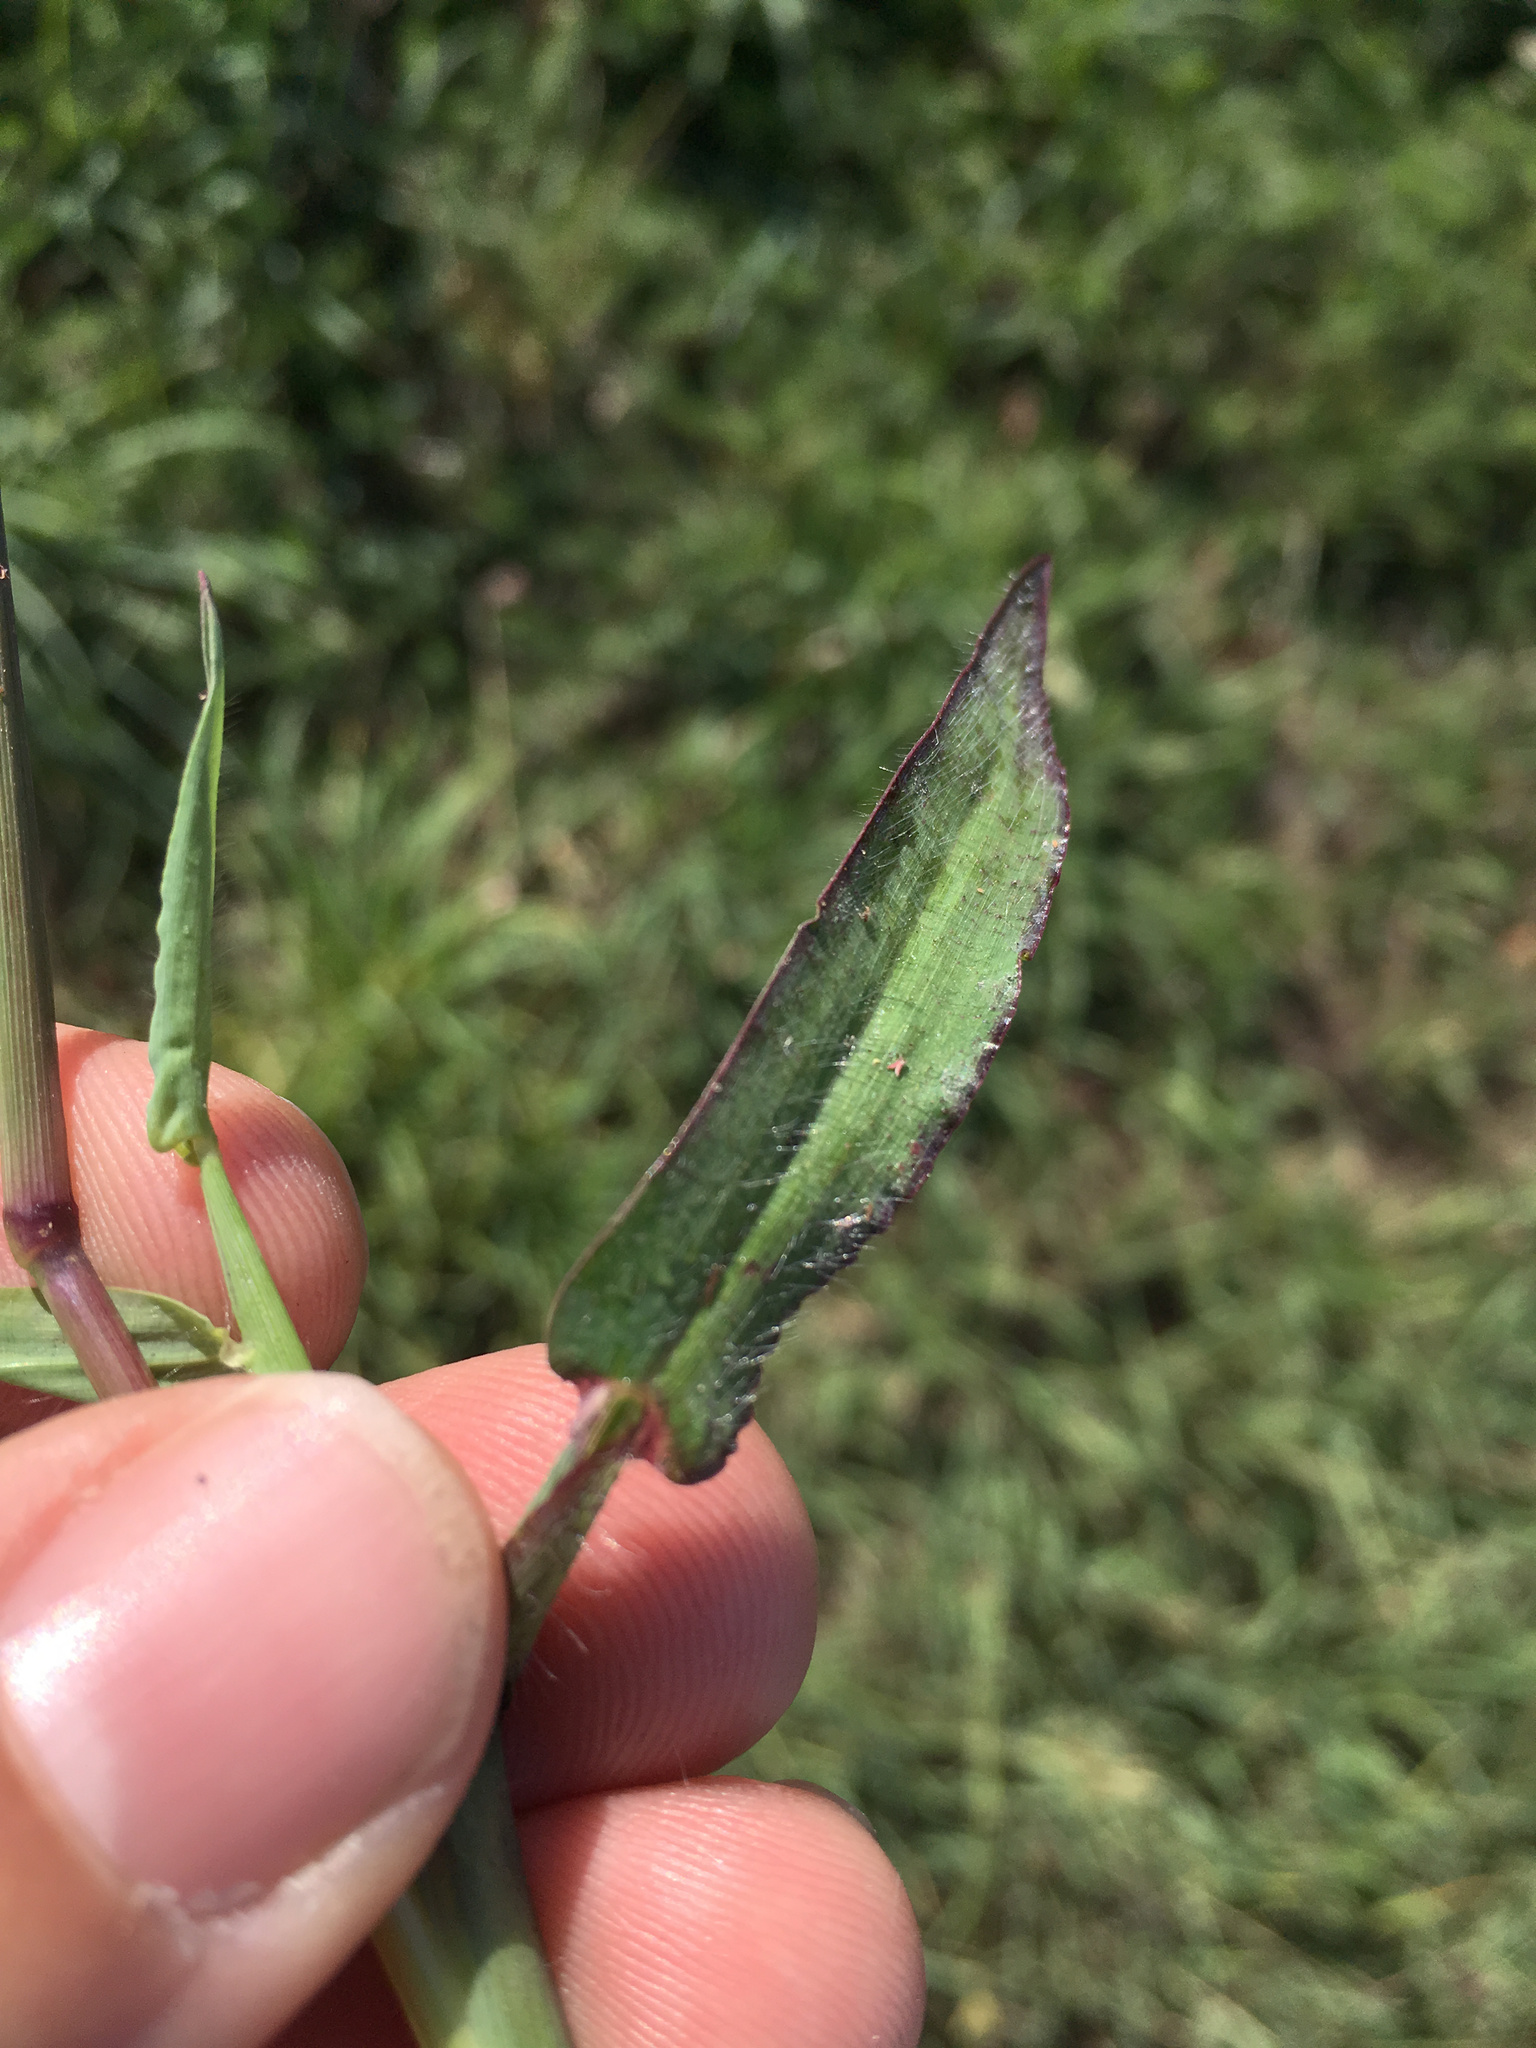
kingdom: Plantae
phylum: Tracheophyta
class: Liliopsida
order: Poales
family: Poaceae
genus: Digitaria
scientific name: Digitaria sanguinalis
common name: Hairy crabgrass
